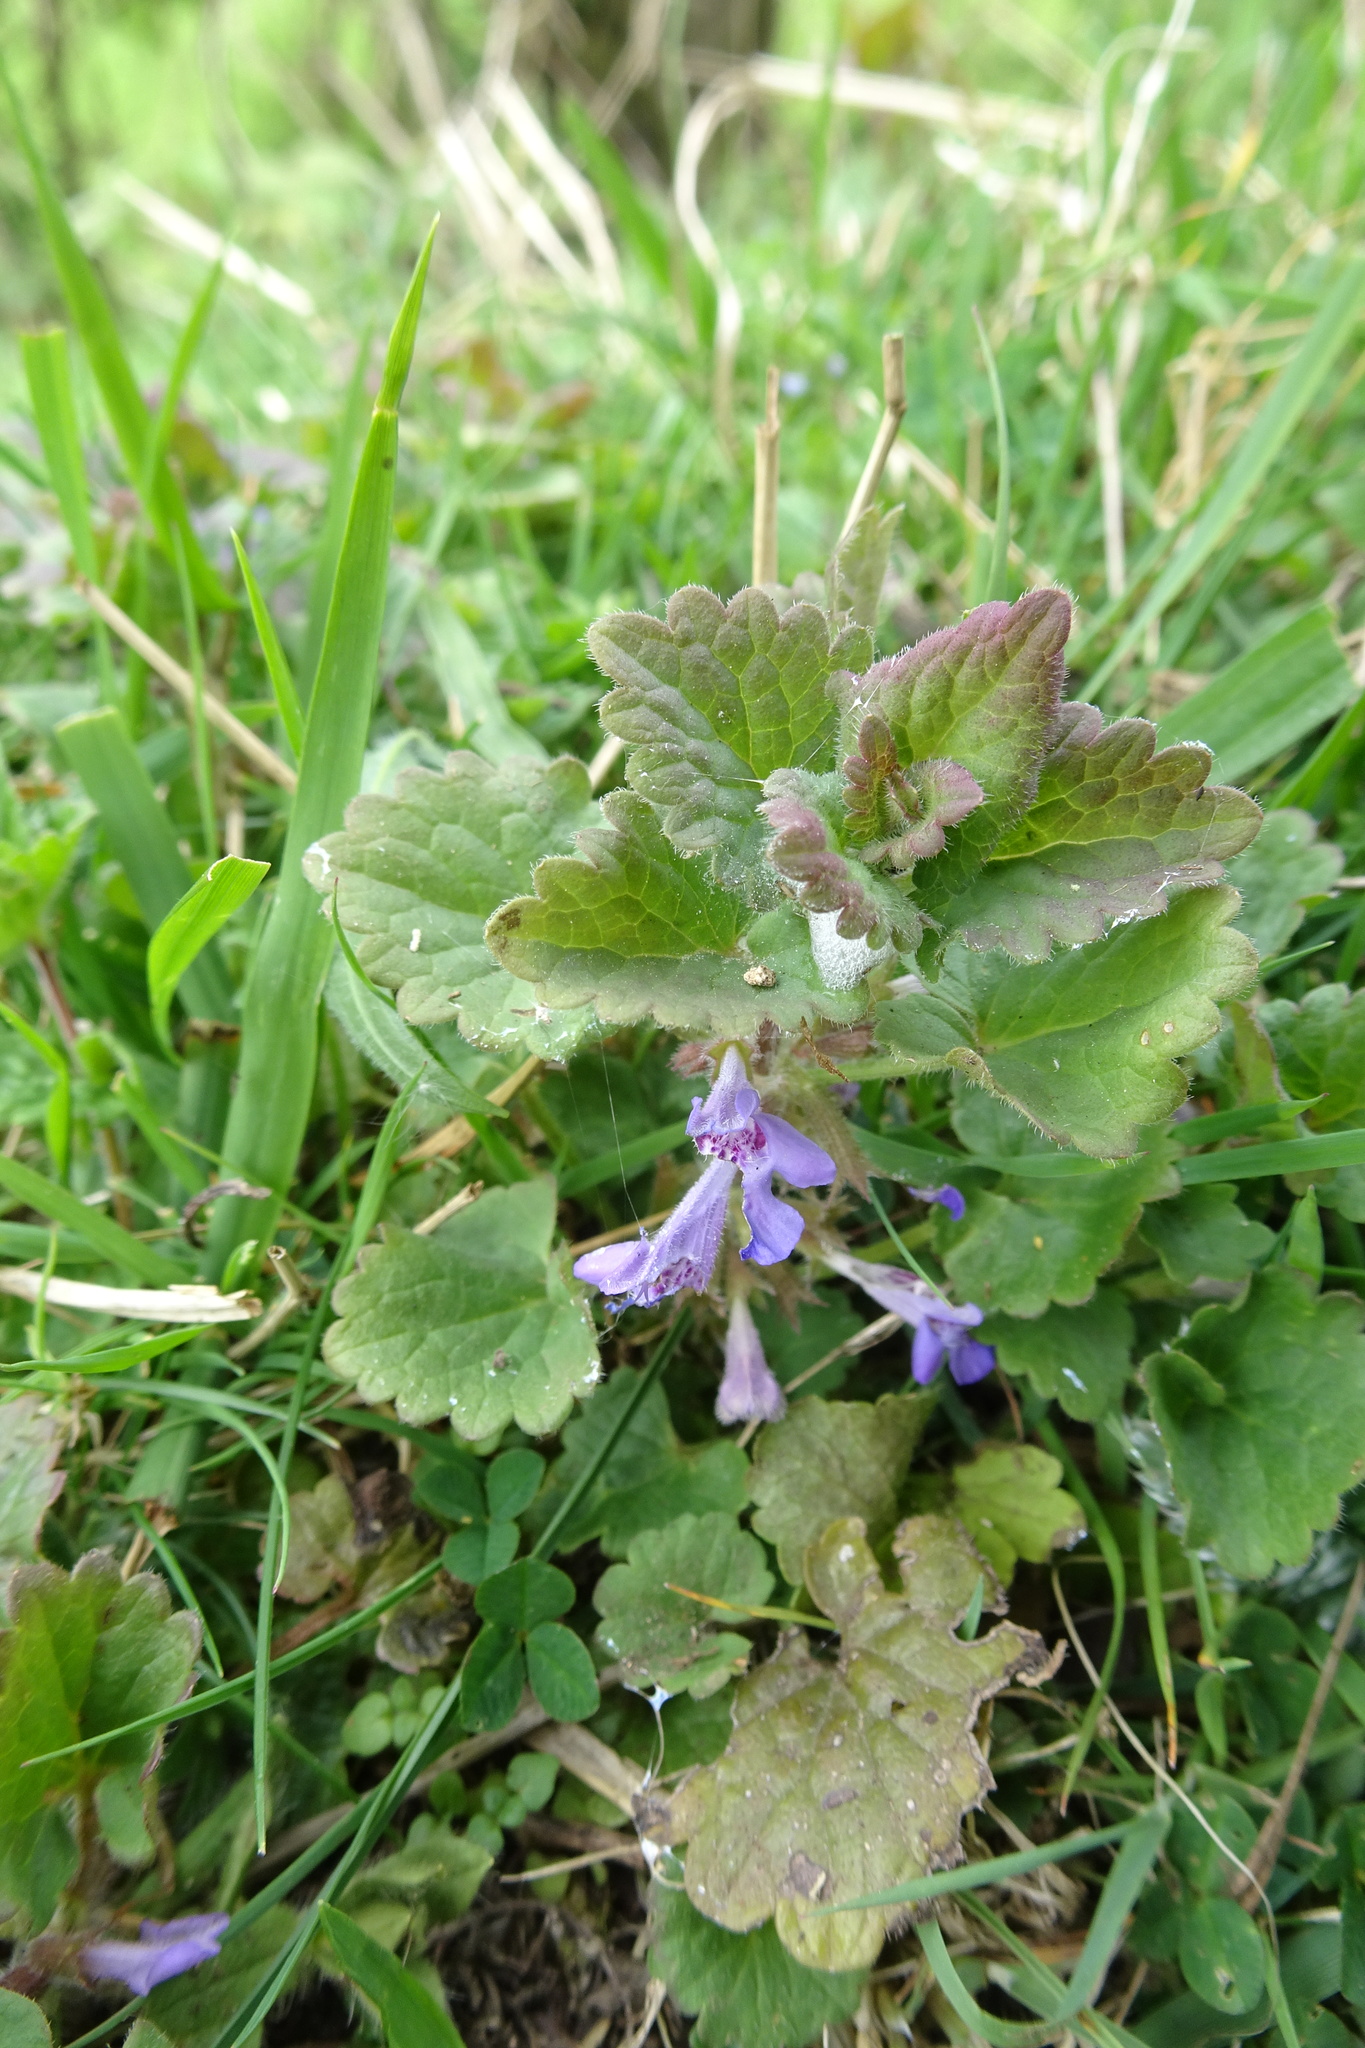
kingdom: Plantae
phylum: Tracheophyta
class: Magnoliopsida
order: Lamiales
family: Lamiaceae
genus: Glechoma
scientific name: Glechoma hederacea
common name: Ground ivy
